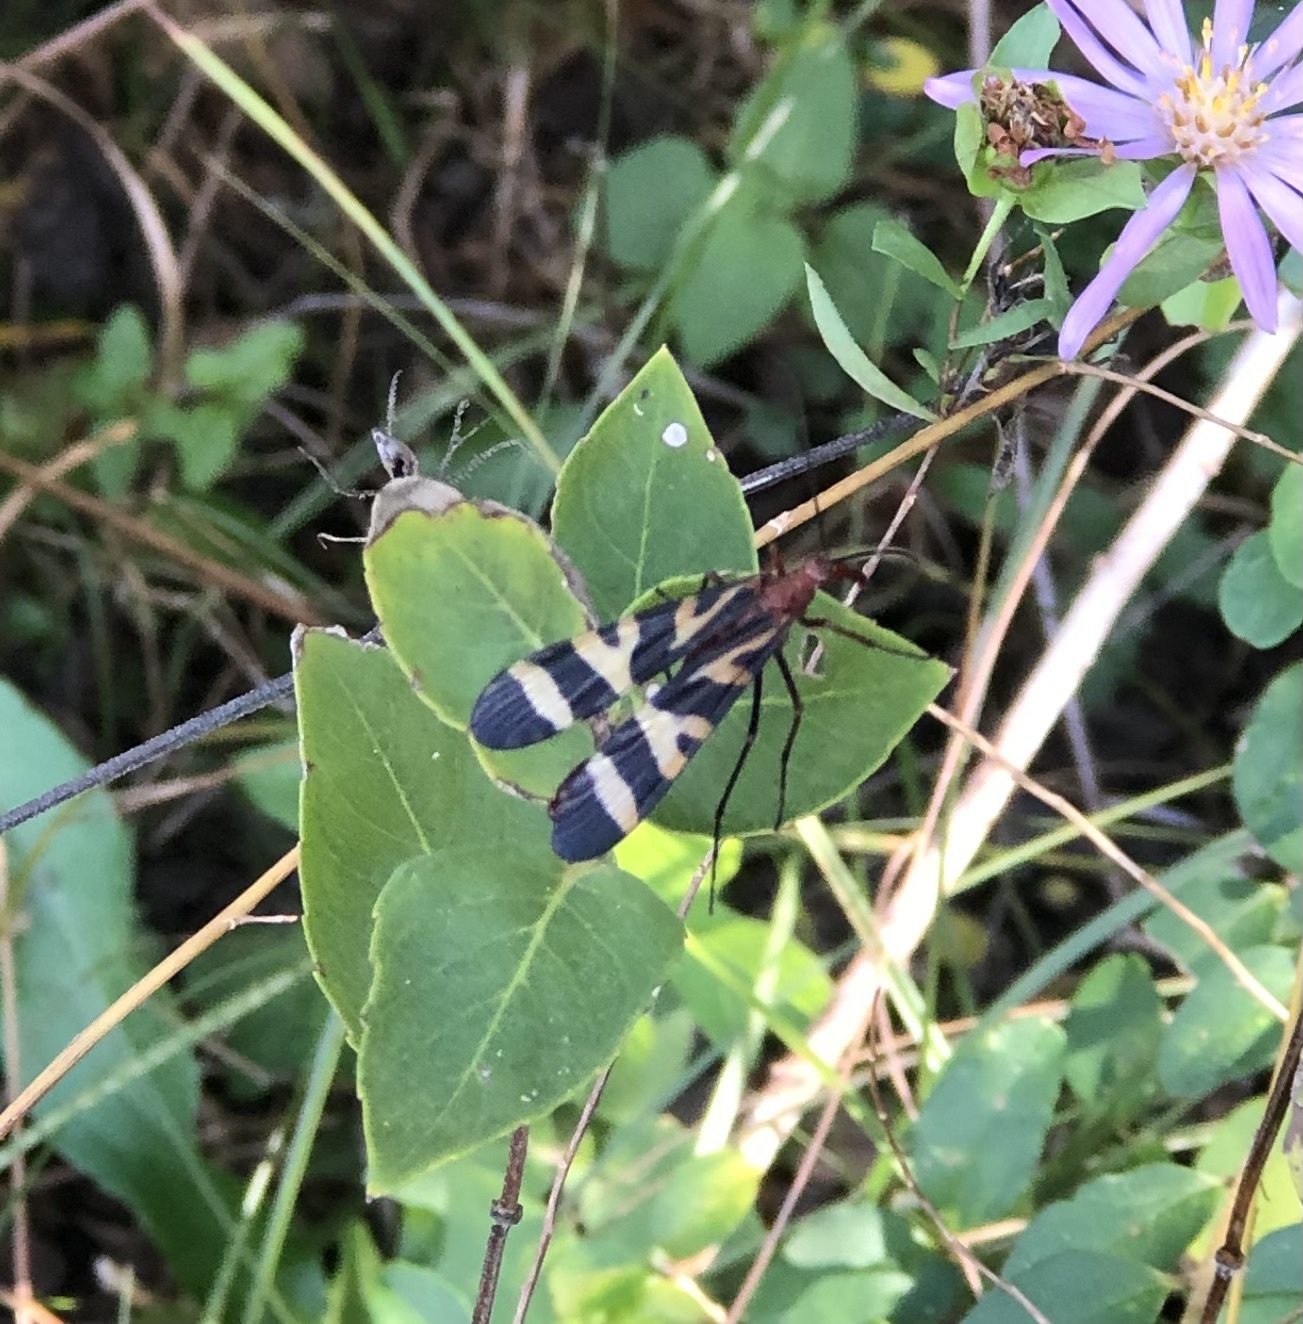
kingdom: Animalia
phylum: Arthropoda
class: Insecta
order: Mecoptera
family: Panorpidae
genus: Panorpa
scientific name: Panorpa nuptialis
